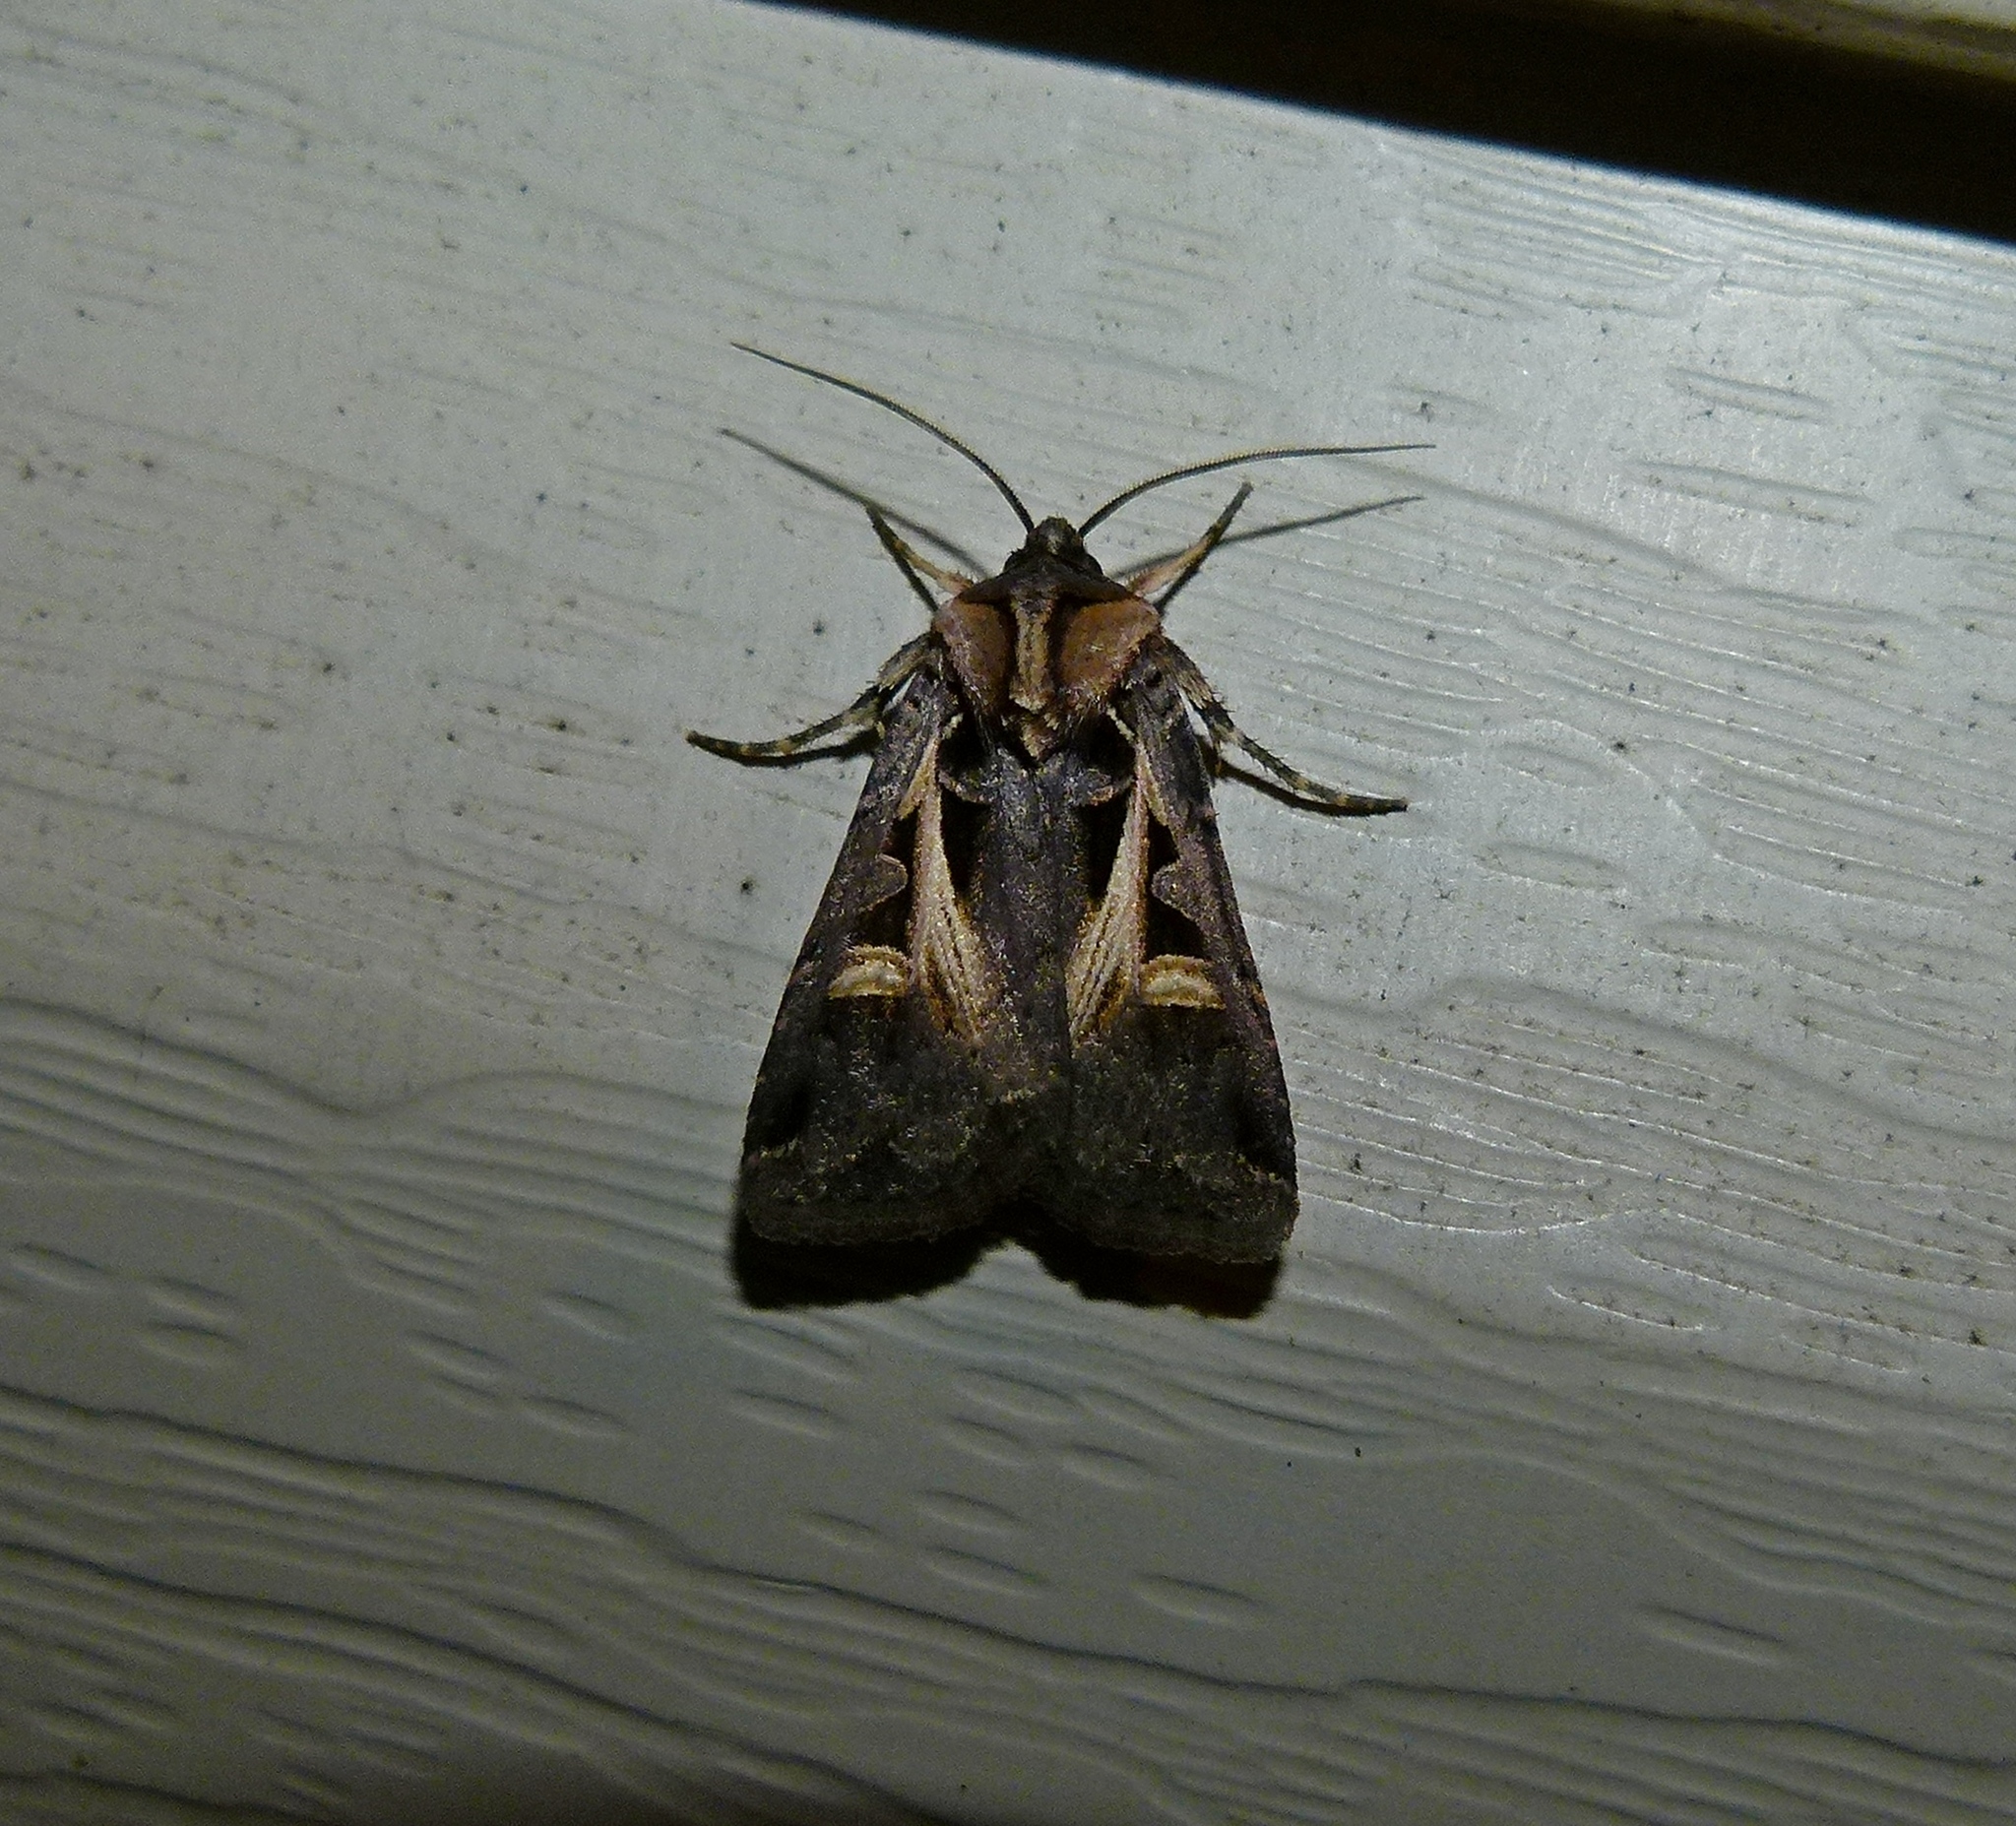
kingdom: Animalia
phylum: Arthropoda
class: Insecta
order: Lepidoptera
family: Noctuidae
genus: Feltia
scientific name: Feltia herilis
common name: Master's dart
